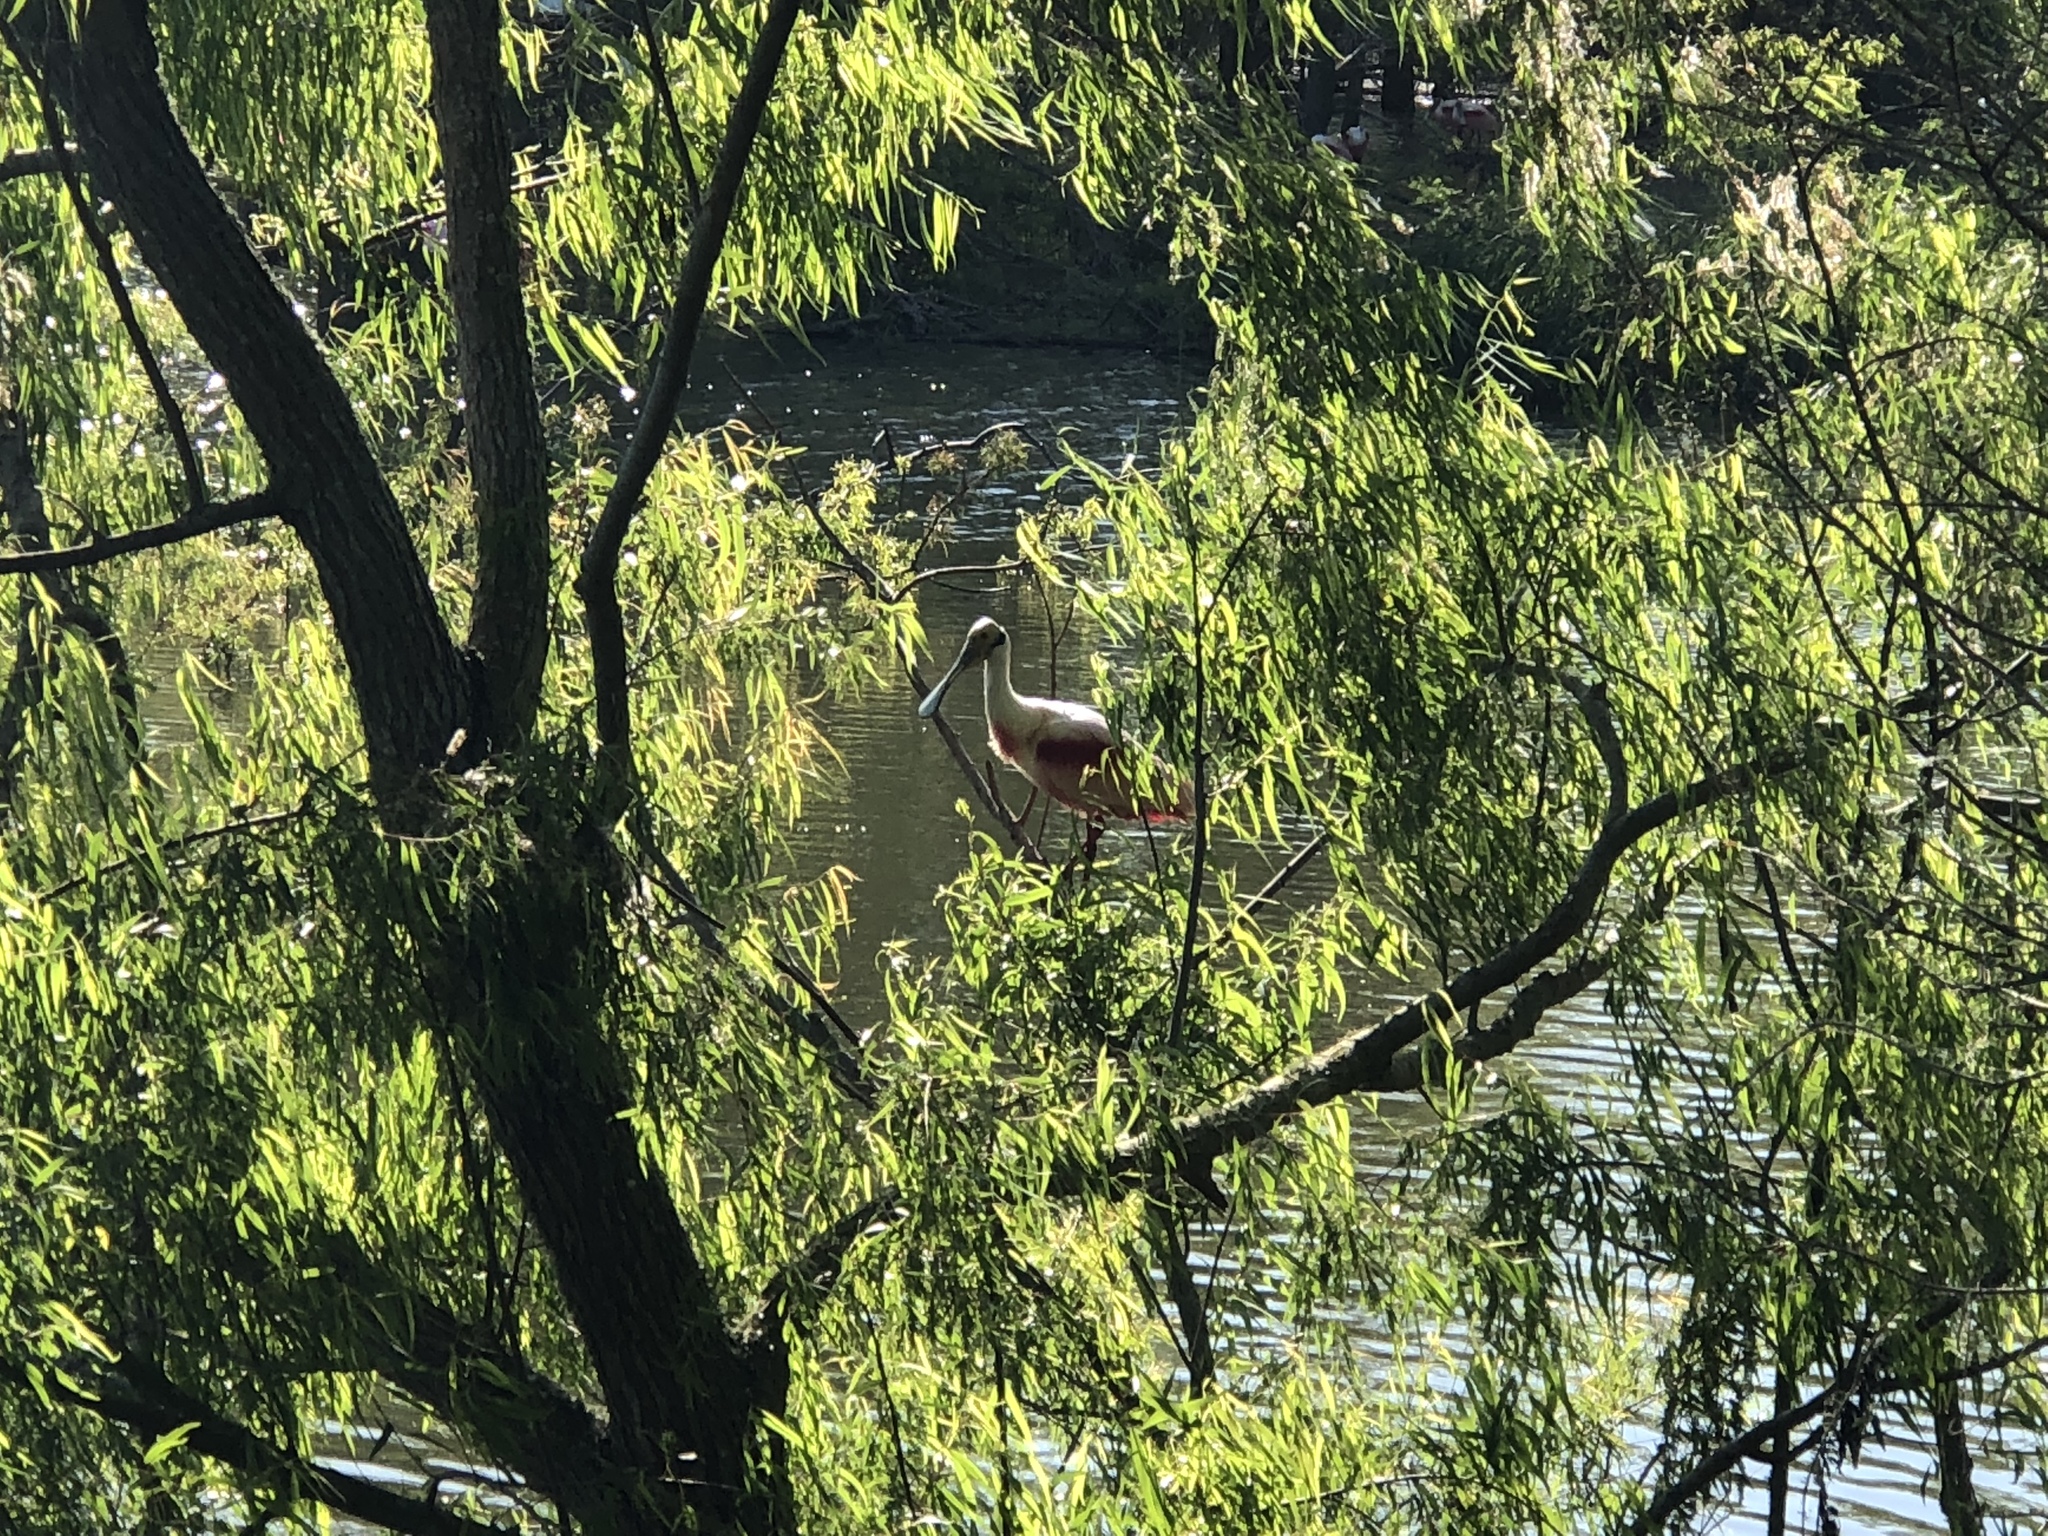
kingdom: Animalia
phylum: Chordata
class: Aves
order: Pelecaniformes
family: Threskiornithidae
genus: Platalea
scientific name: Platalea ajaja
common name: Roseate spoonbill
